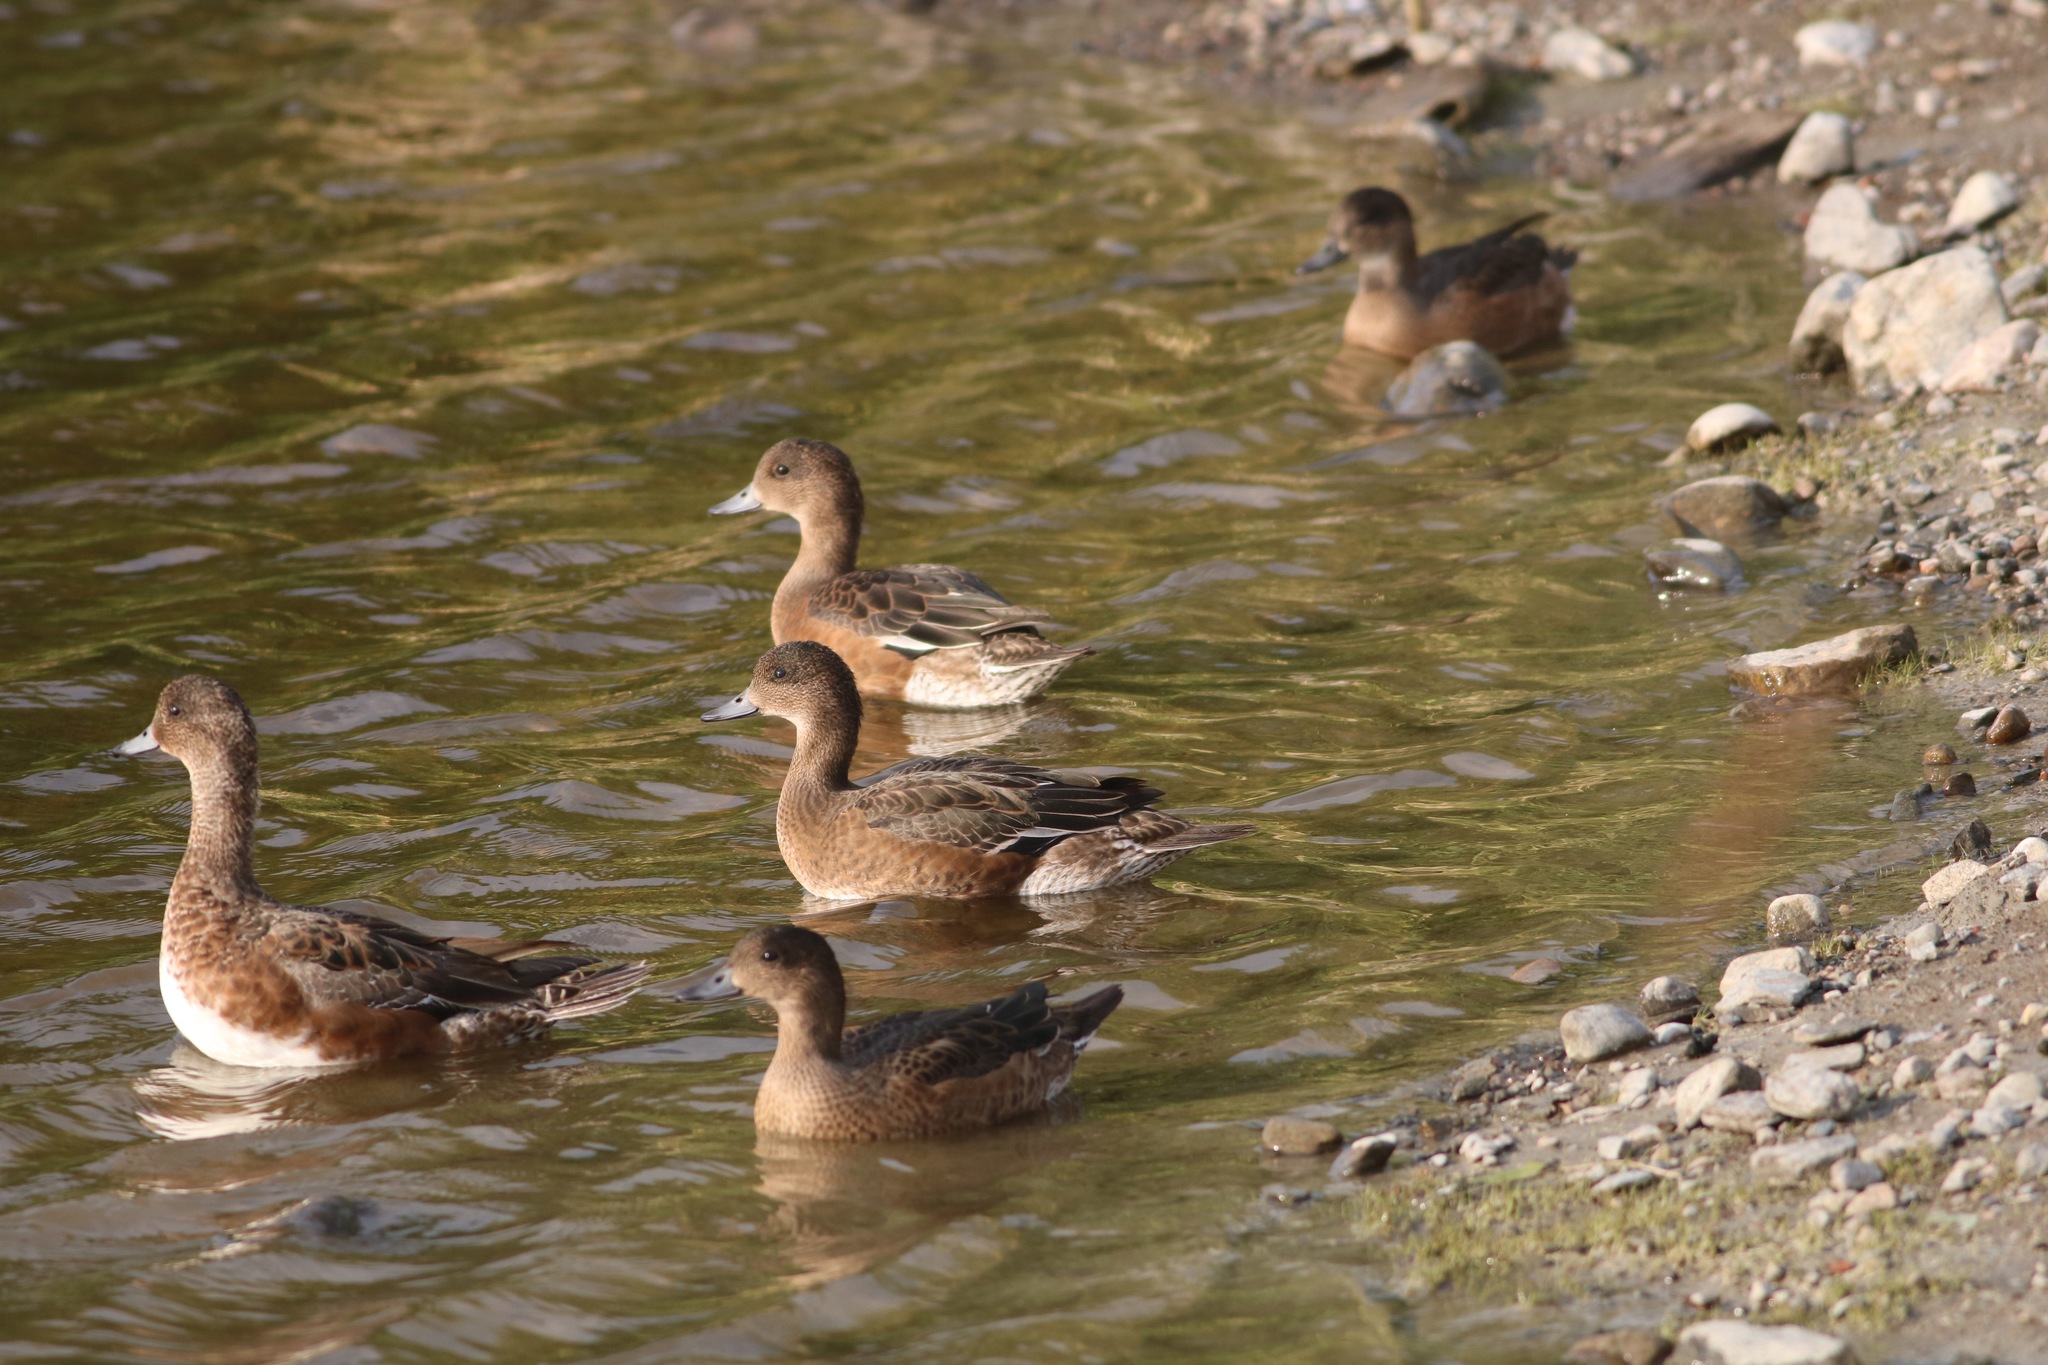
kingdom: Animalia
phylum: Chordata
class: Aves
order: Anseriformes
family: Anatidae
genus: Mareca
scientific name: Mareca penelope
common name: Eurasian wigeon
